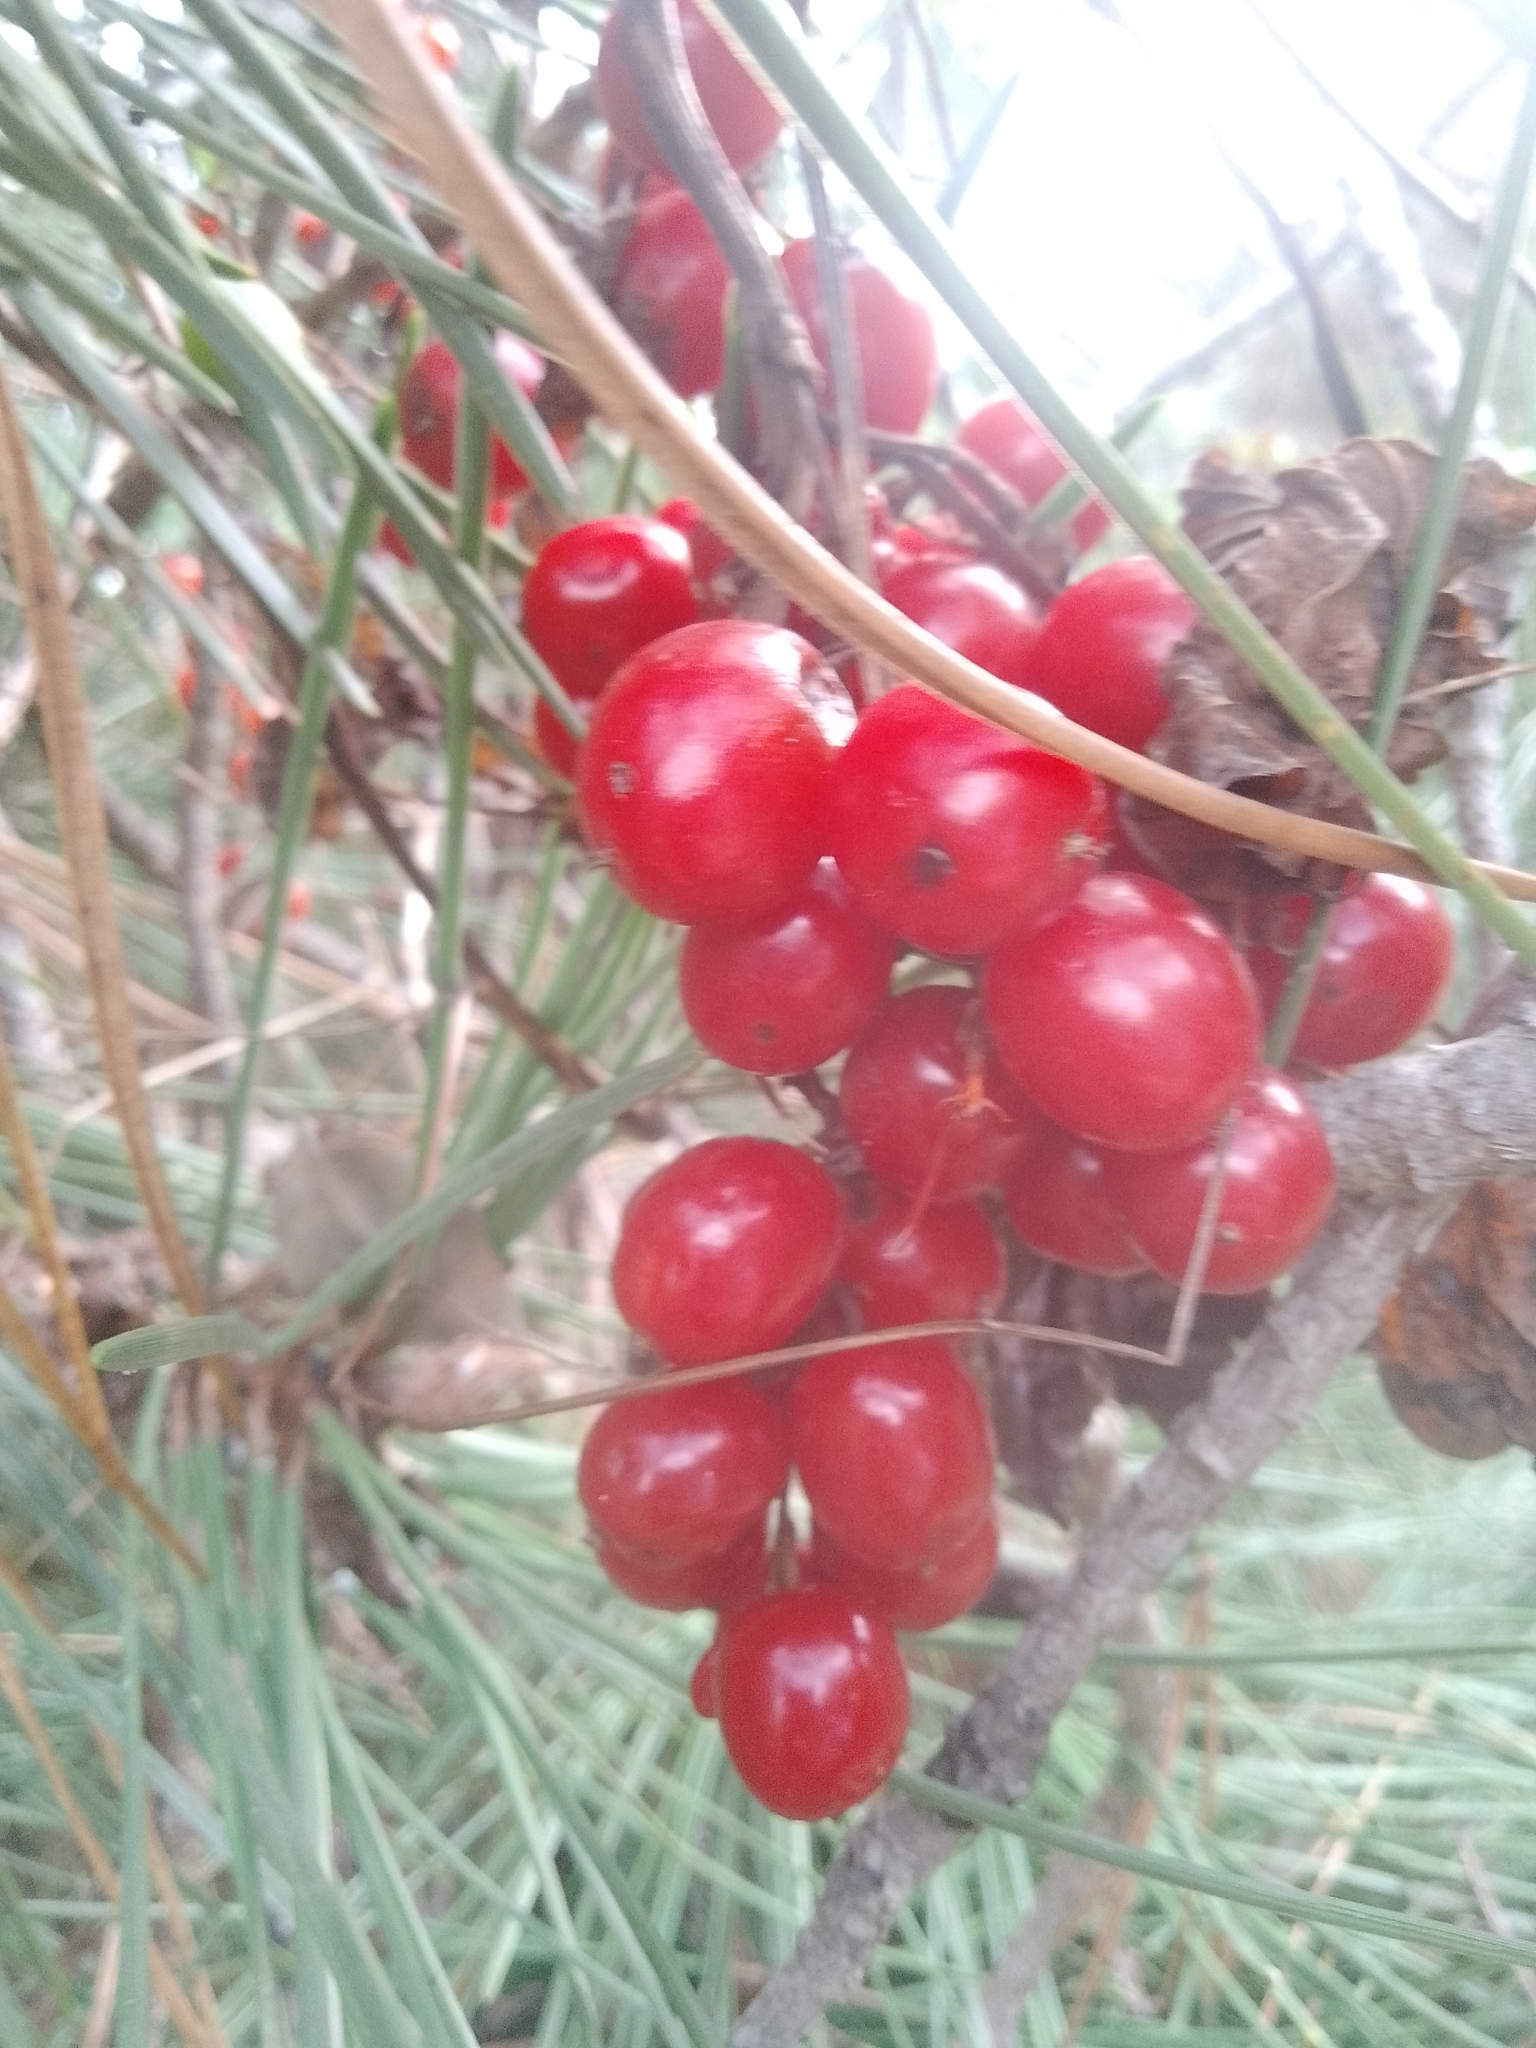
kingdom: Plantae
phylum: Tracheophyta
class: Liliopsida
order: Dioscoreales
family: Dioscoreaceae
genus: Dioscorea
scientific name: Dioscorea communis
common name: Black-bindweed
